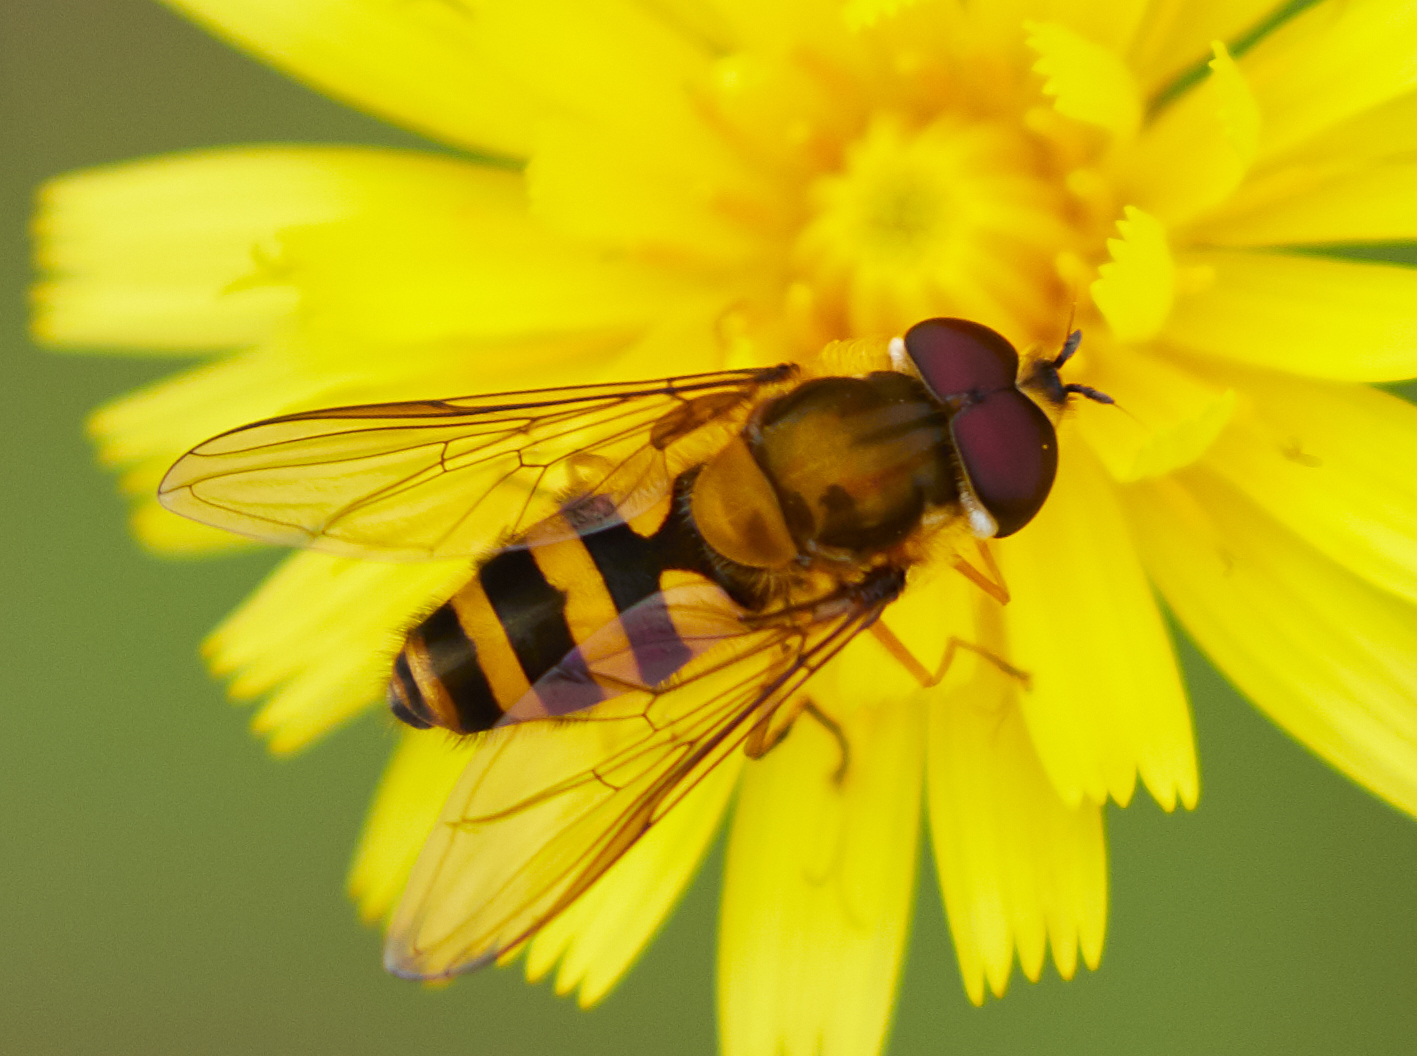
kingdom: Animalia
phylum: Arthropoda
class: Insecta
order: Diptera
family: Syrphidae
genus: Epistrophe
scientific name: Epistrophe grossulariae
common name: Black-horned smoothtail
